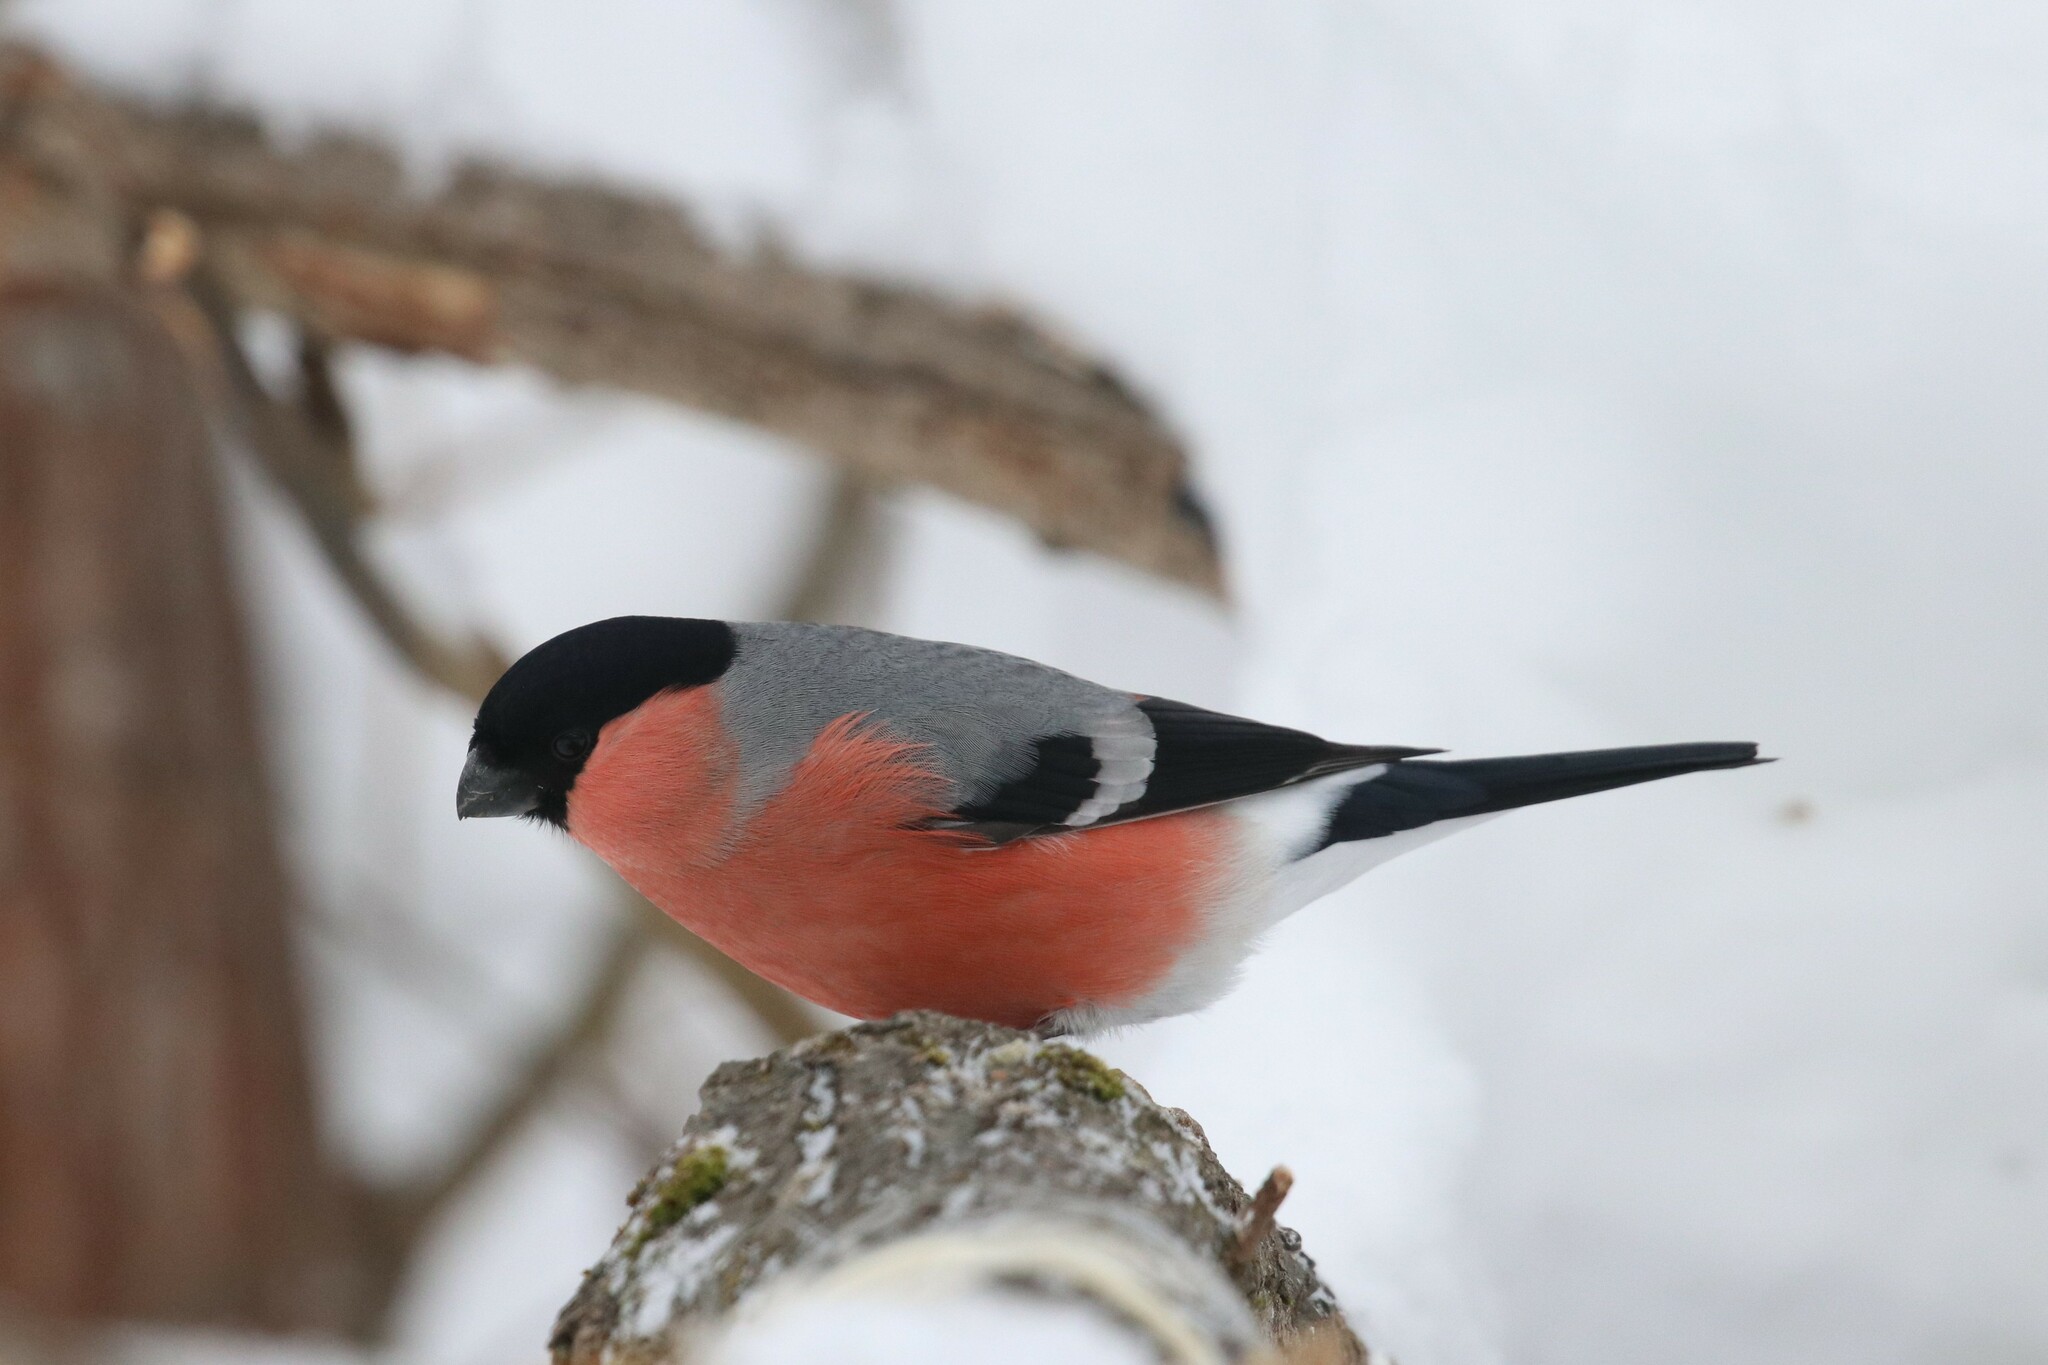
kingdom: Animalia
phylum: Chordata
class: Aves
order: Passeriformes
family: Fringillidae
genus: Pyrrhula
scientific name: Pyrrhula pyrrhula
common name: Eurasian bullfinch
